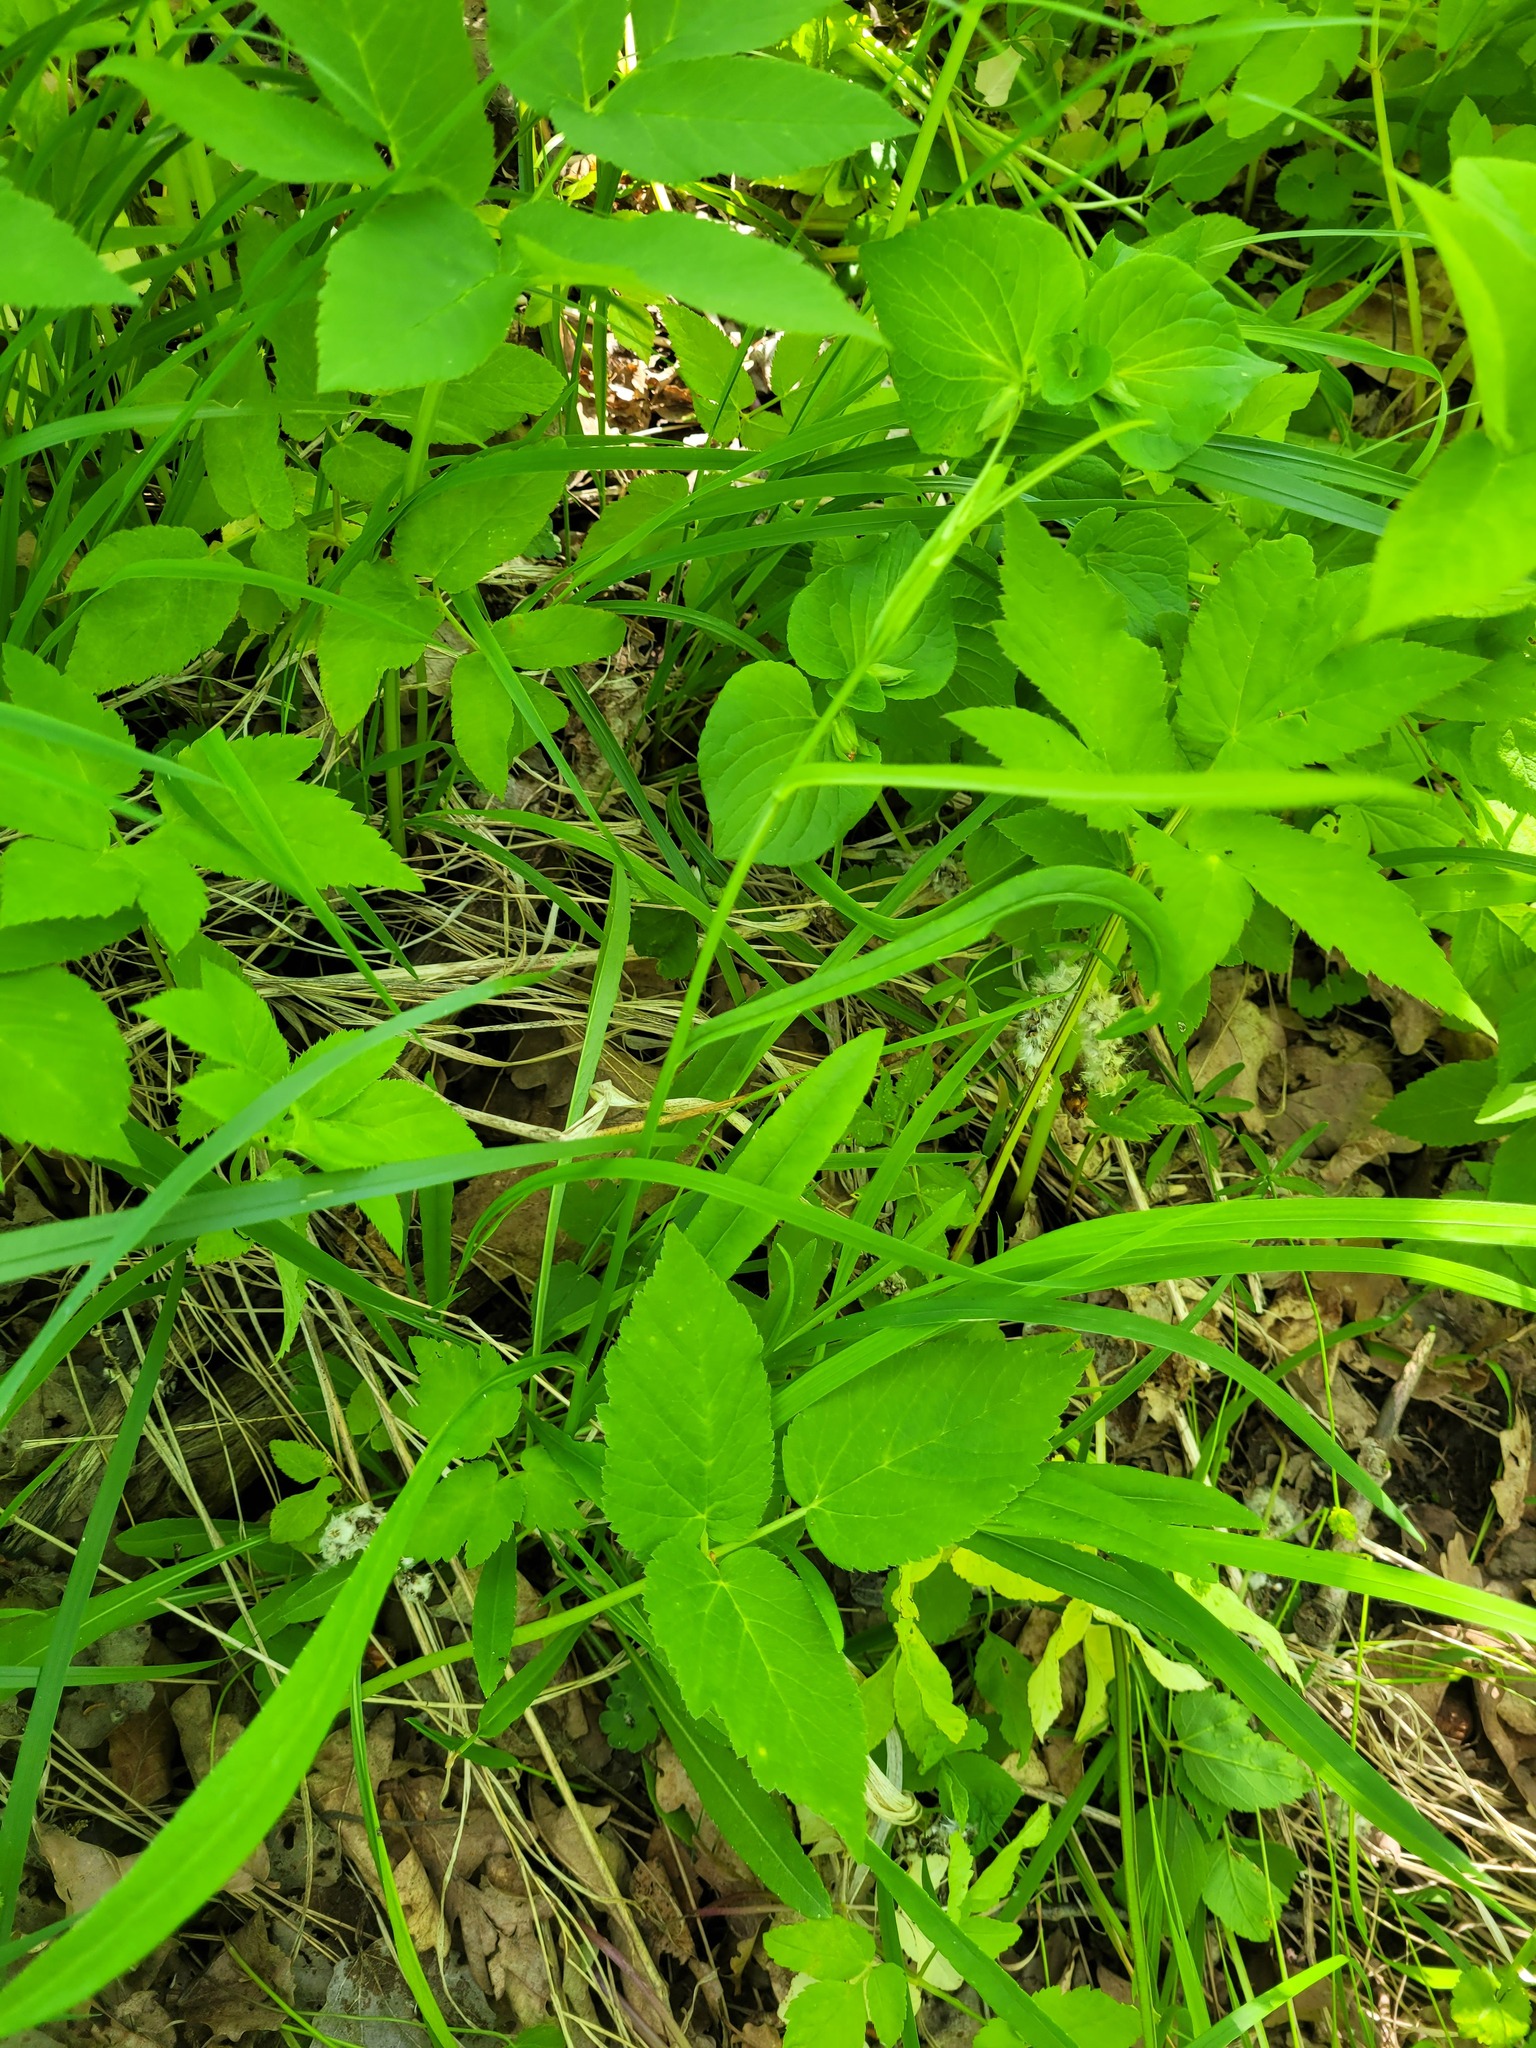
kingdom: Plantae
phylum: Tracheophyta
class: Magnoliopsida
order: Asterales
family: Campanulaceae
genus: Campanula
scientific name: Campanula persicifolia
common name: Peach-leaved bellflower
